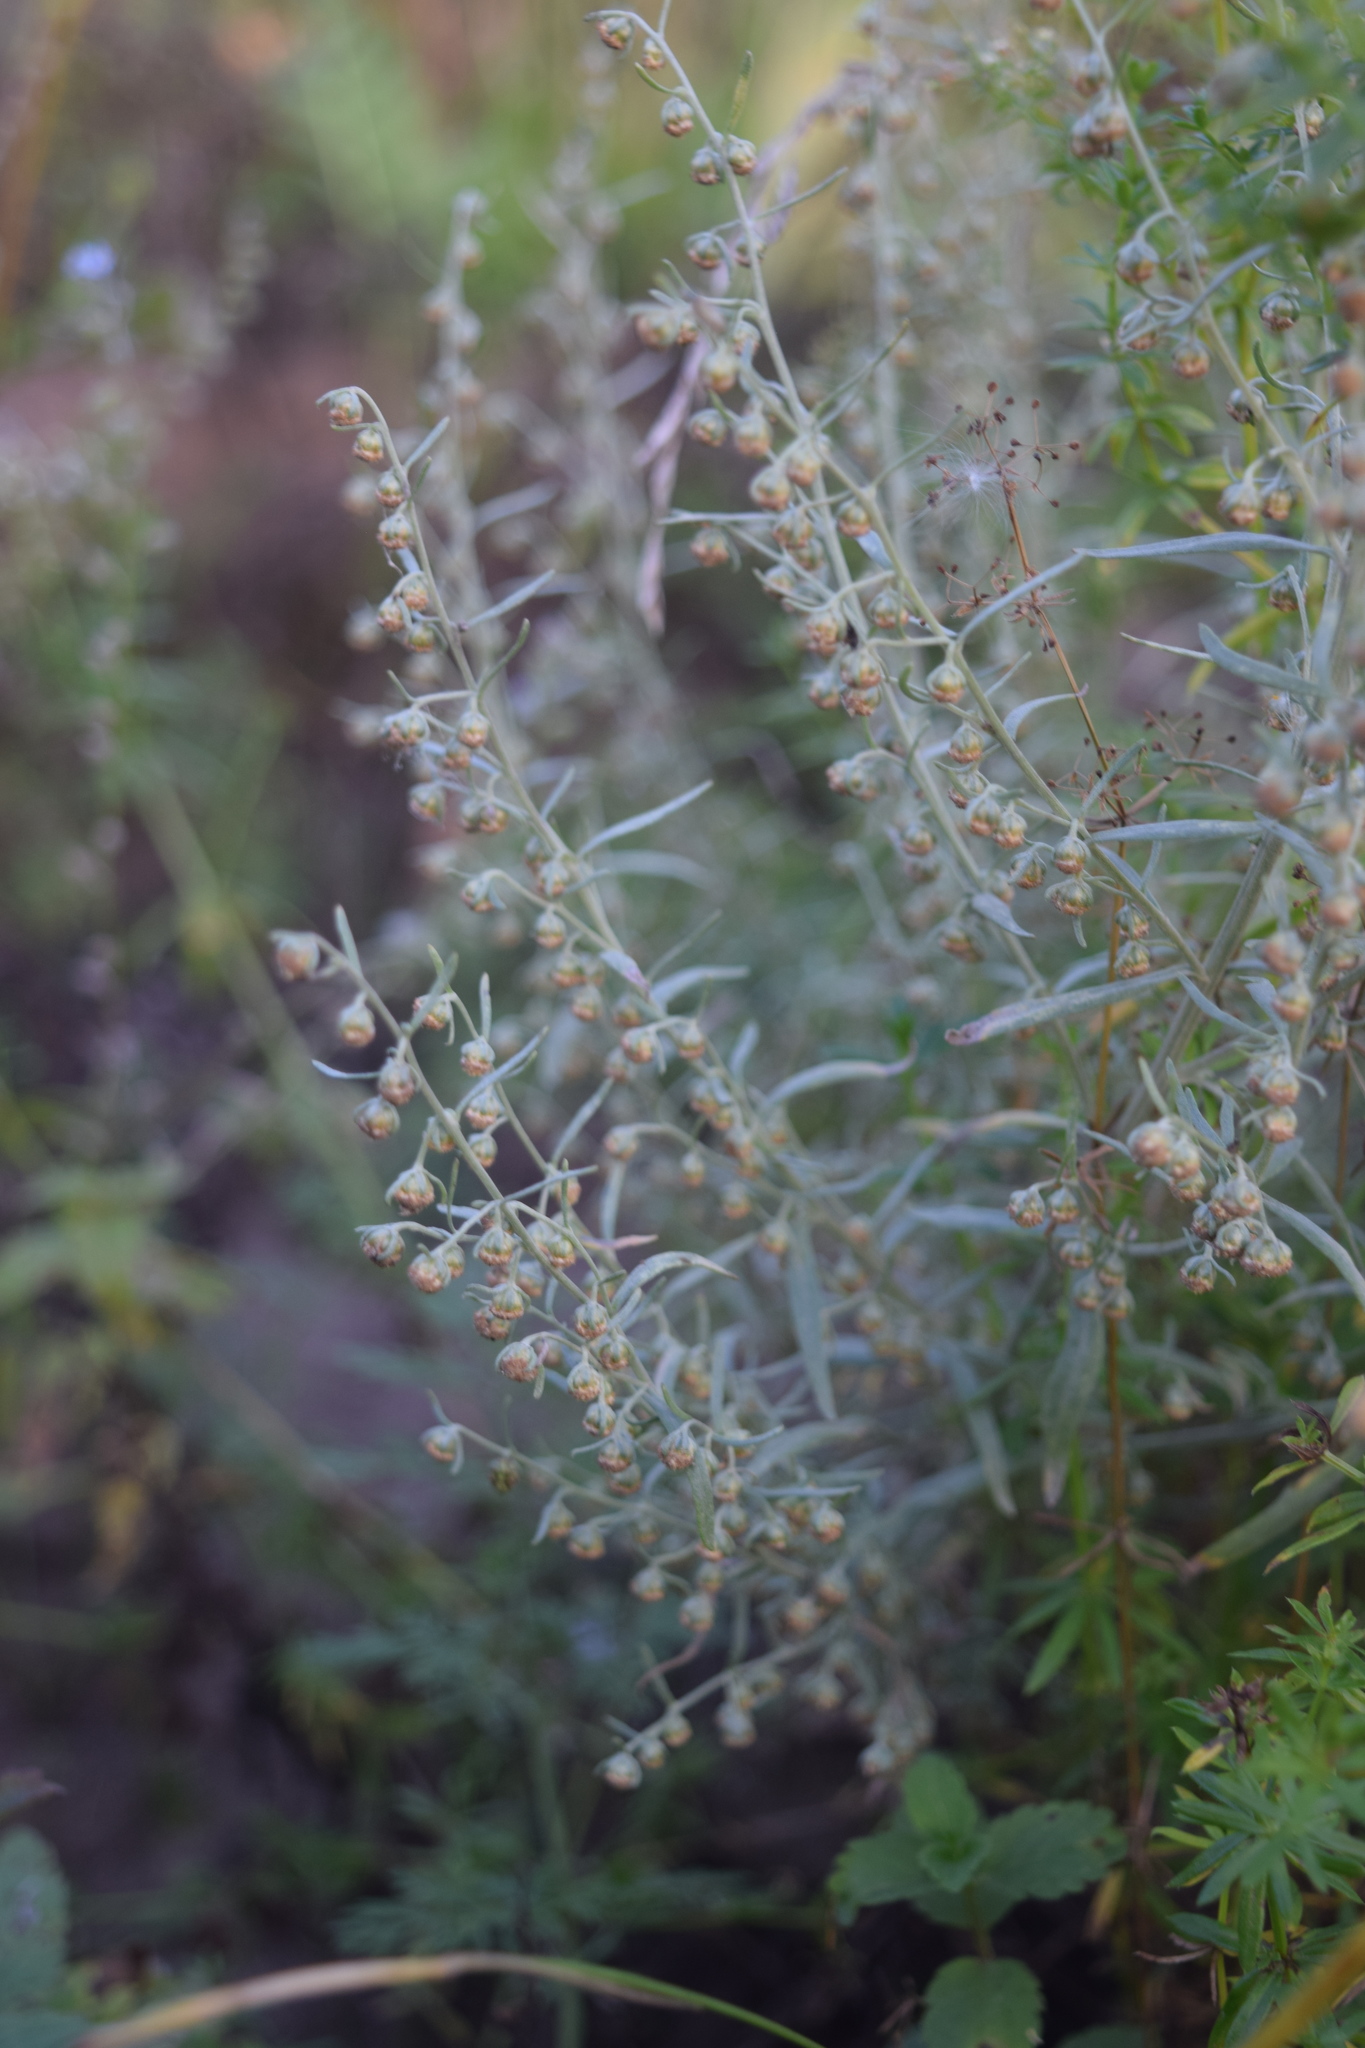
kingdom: Plantae
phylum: Tracheophyta
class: Magnoliopsida
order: Asterales
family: Asteraceae
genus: Artemisia
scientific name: Artemisia absinthium
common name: Wormwood
